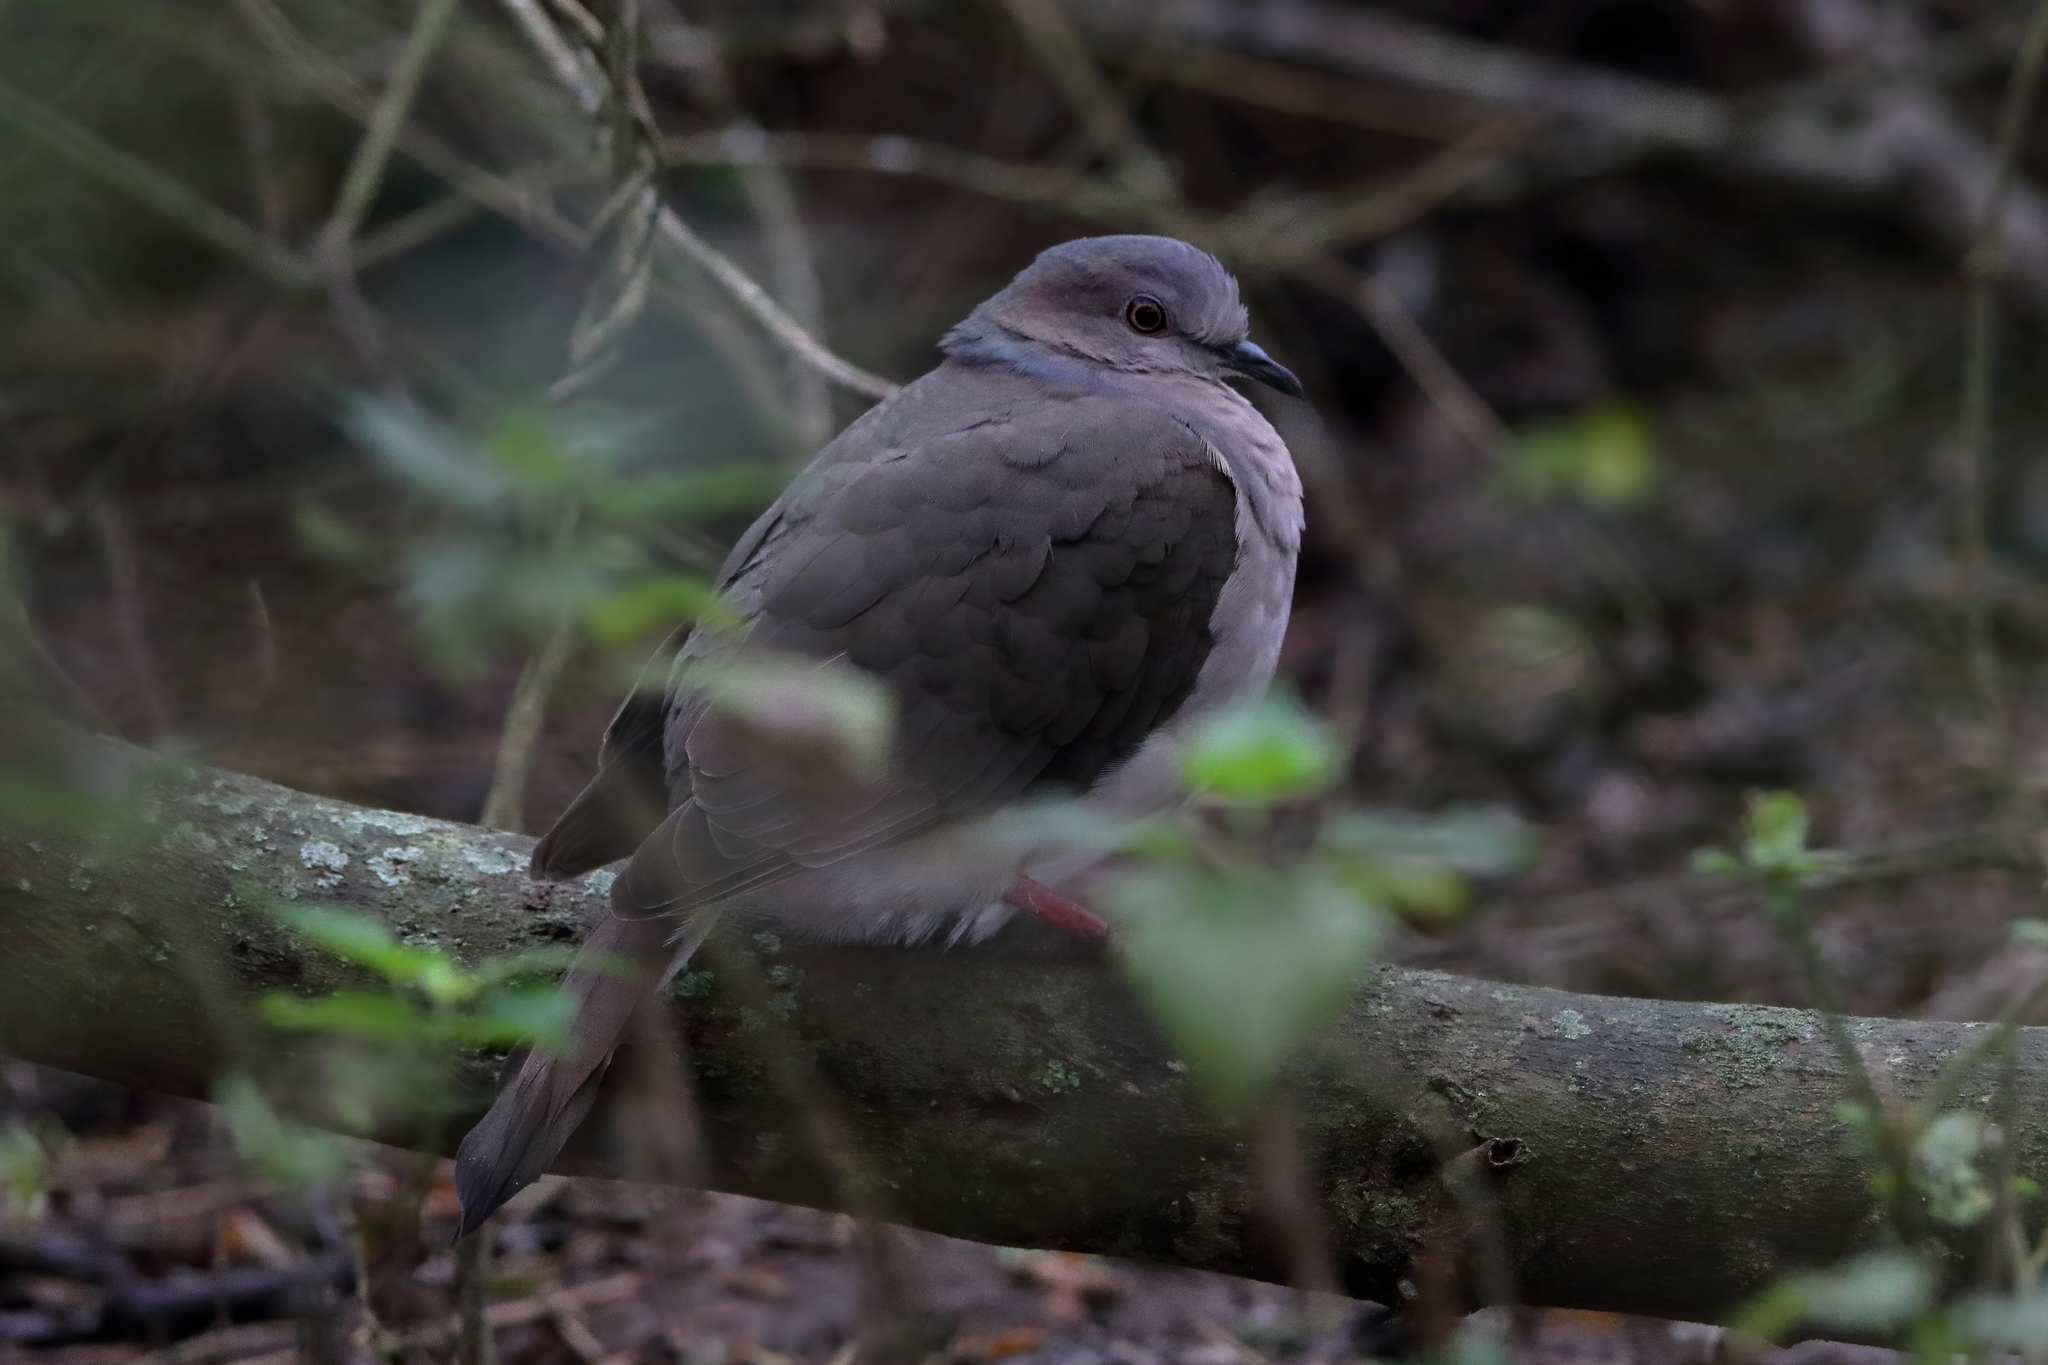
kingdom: Animalia
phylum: Chordata
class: Aves
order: Columbiformes
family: Columbidae
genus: Leptotila
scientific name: Leptotila verreauxi
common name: White-tipped dove
